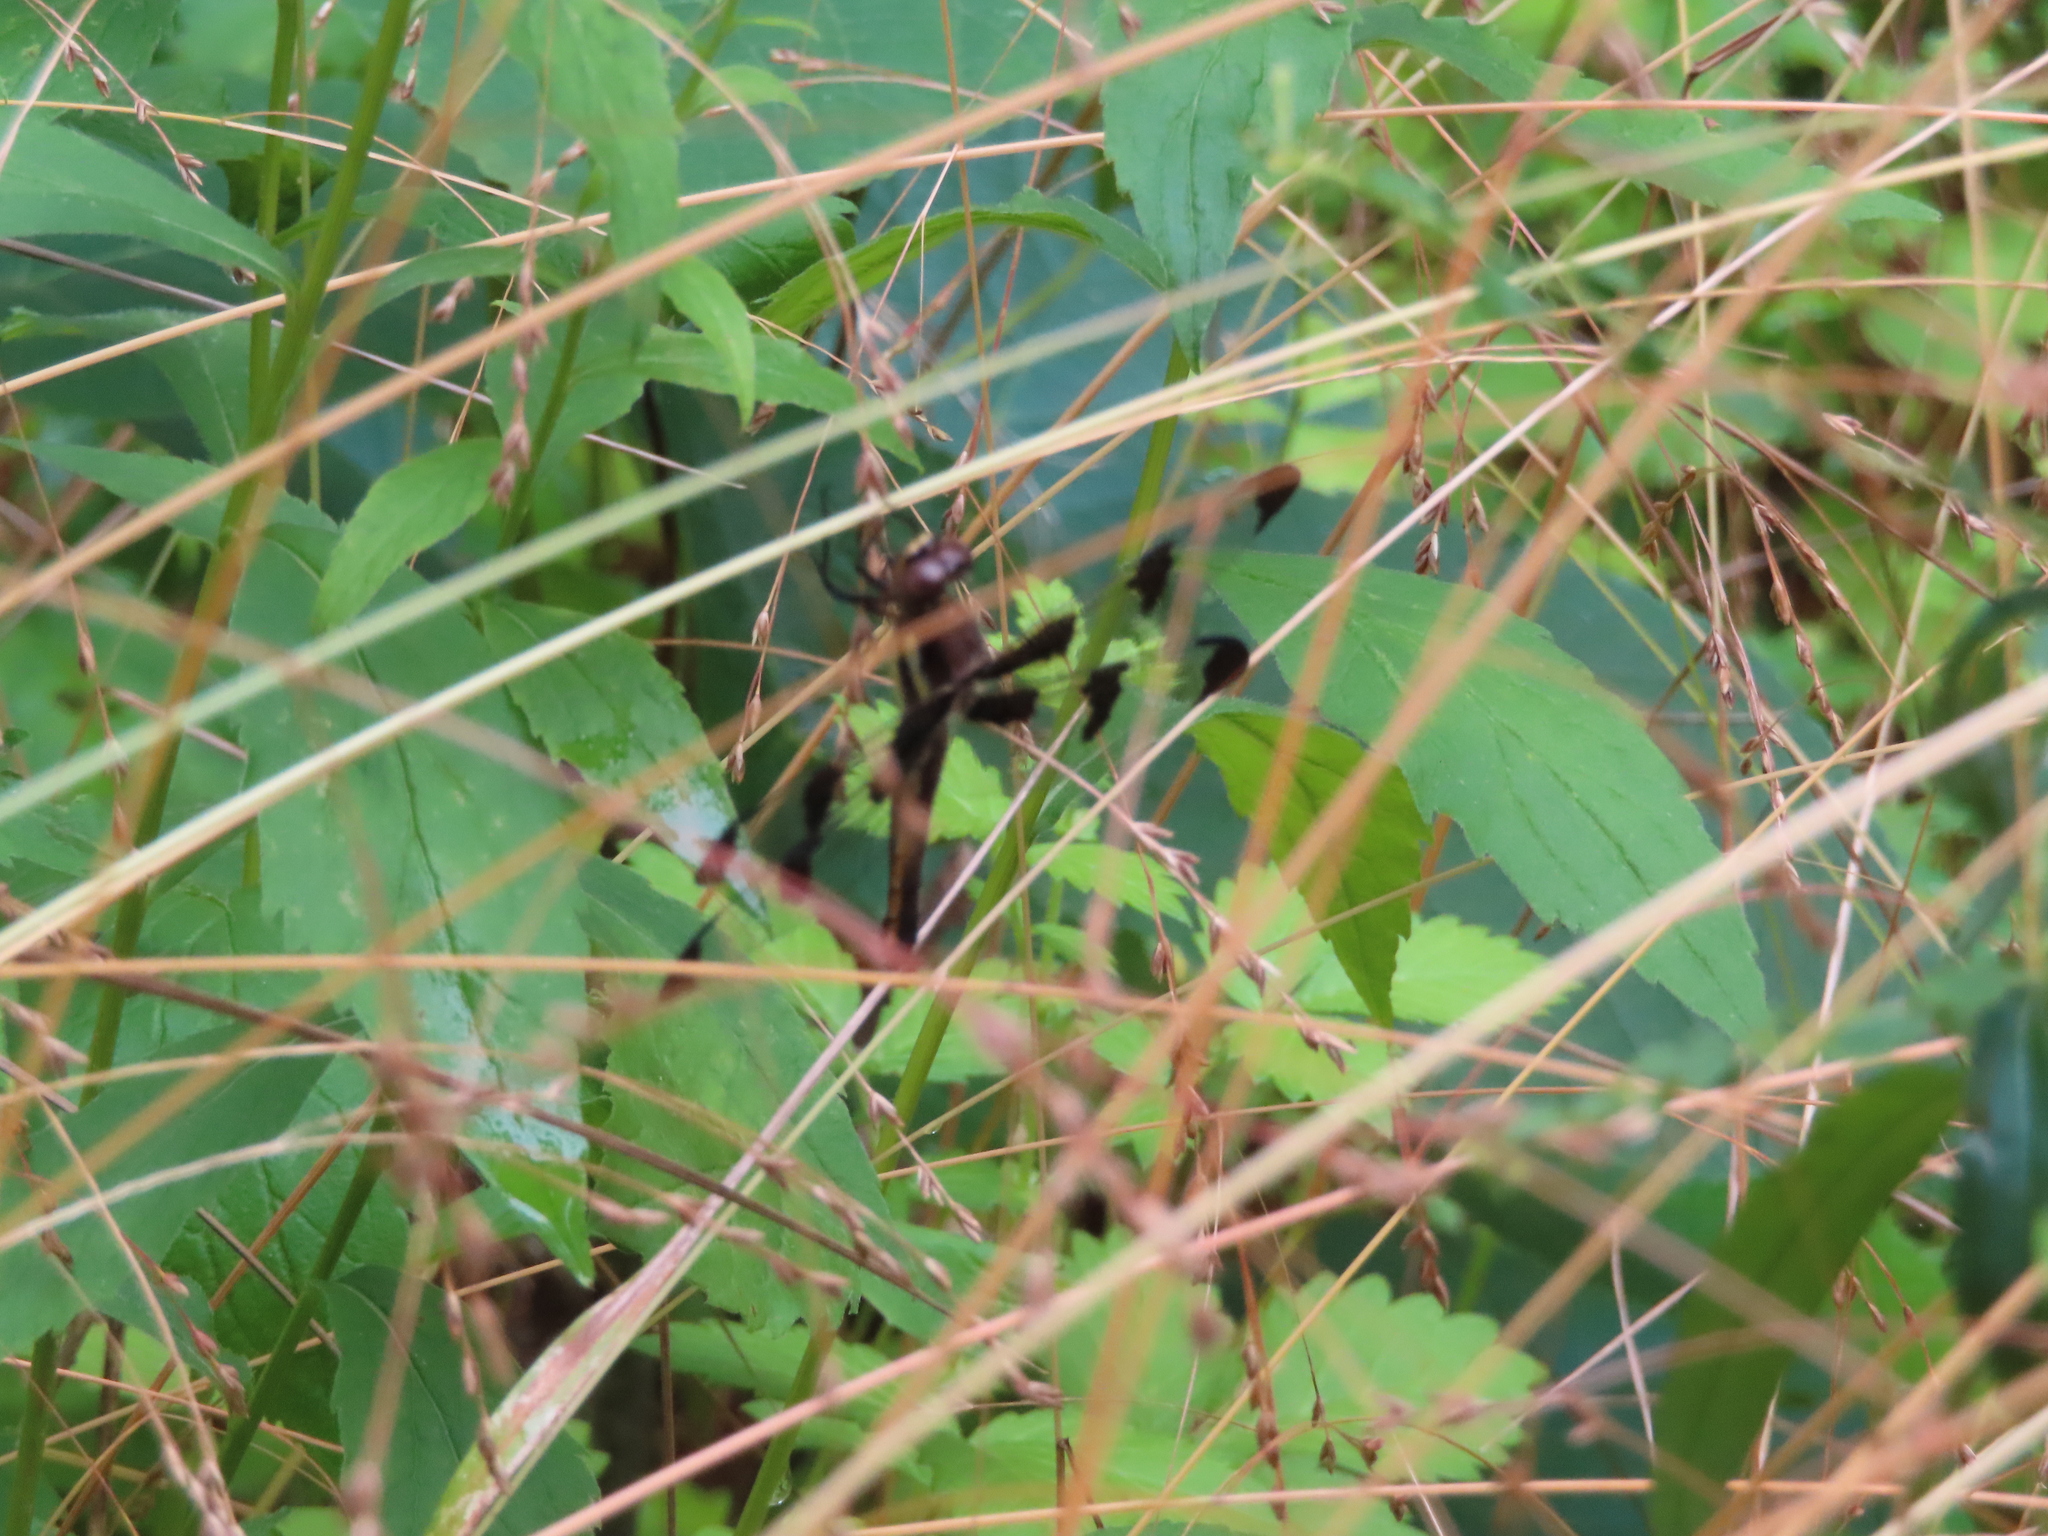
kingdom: Animalia
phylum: Arthropoda
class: Insecta
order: Odonata
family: Libellulidae
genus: Libellula
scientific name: Libellula pulchella
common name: Twelve-spotted skimmer
